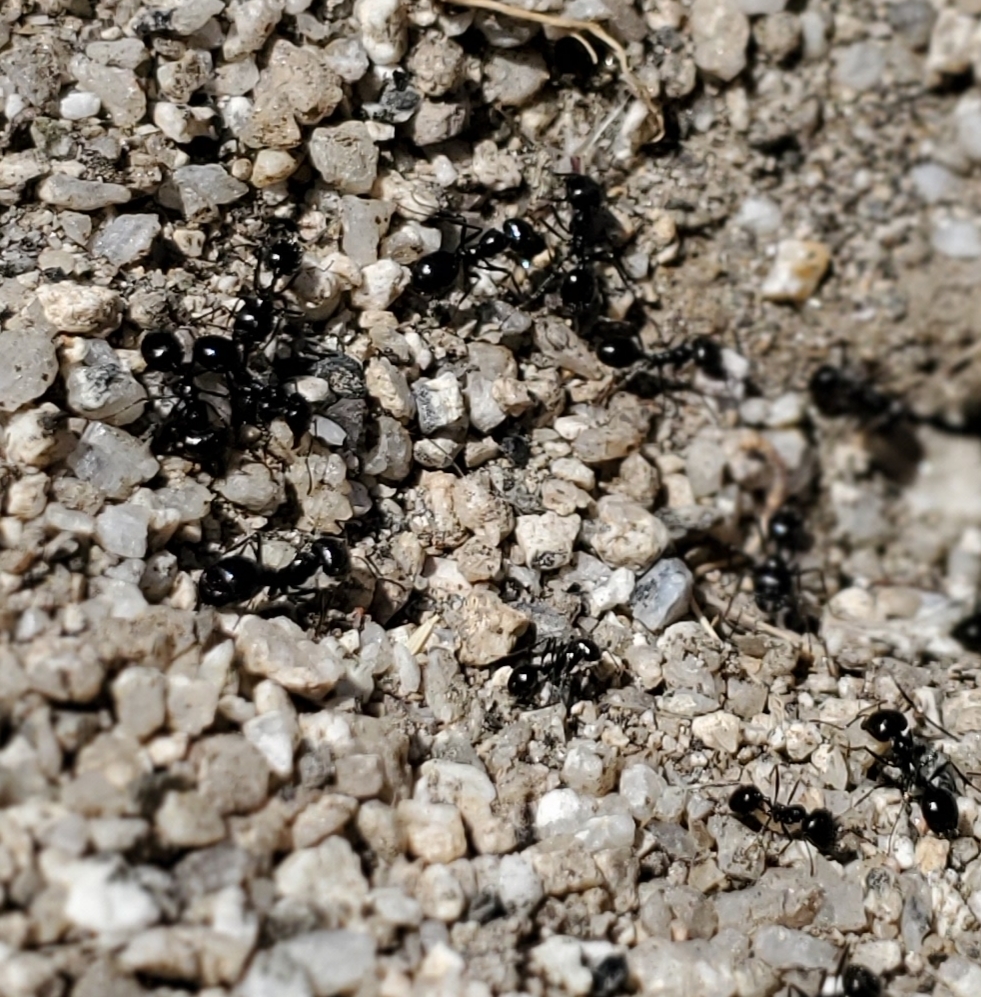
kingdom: Animalia
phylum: Arthropoda
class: Insecta
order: Hymenoptera
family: Formicidae
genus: Messor
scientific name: Messor pergandei
